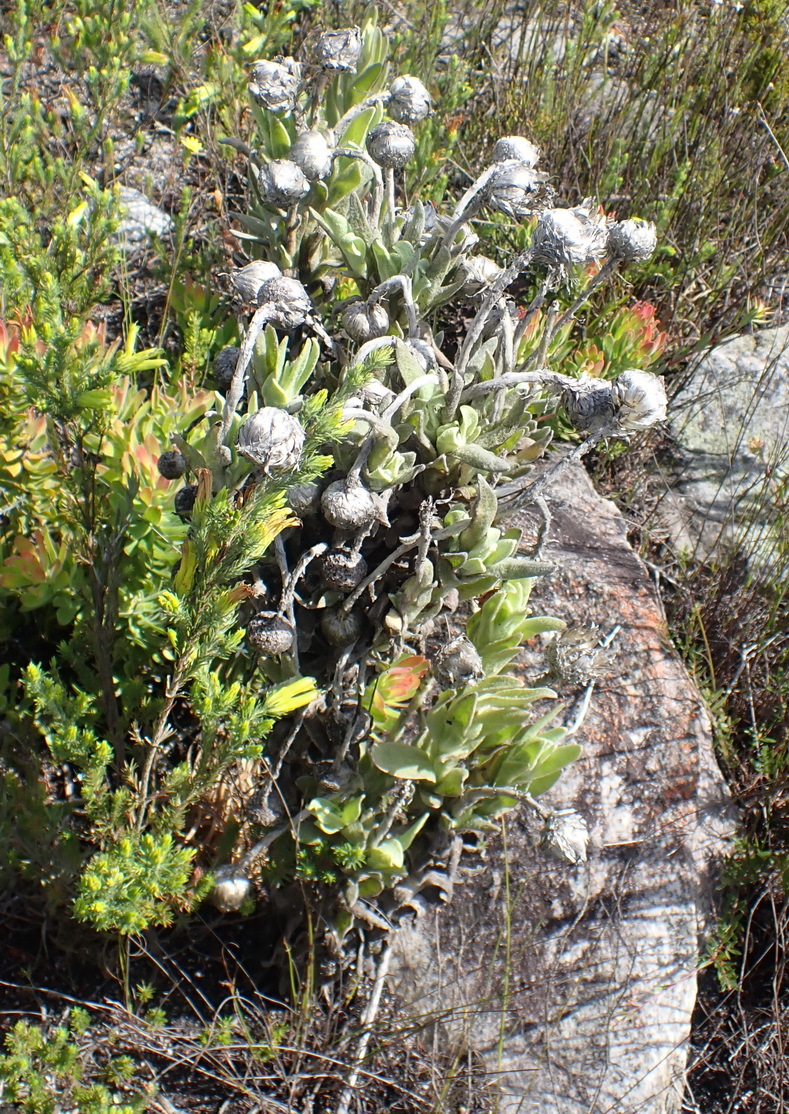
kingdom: Plantae
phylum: Tracheophyta
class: Magnoliopsida
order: Asterales
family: Asteraceae
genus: Syncarpha
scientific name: Syncarpha vestita
